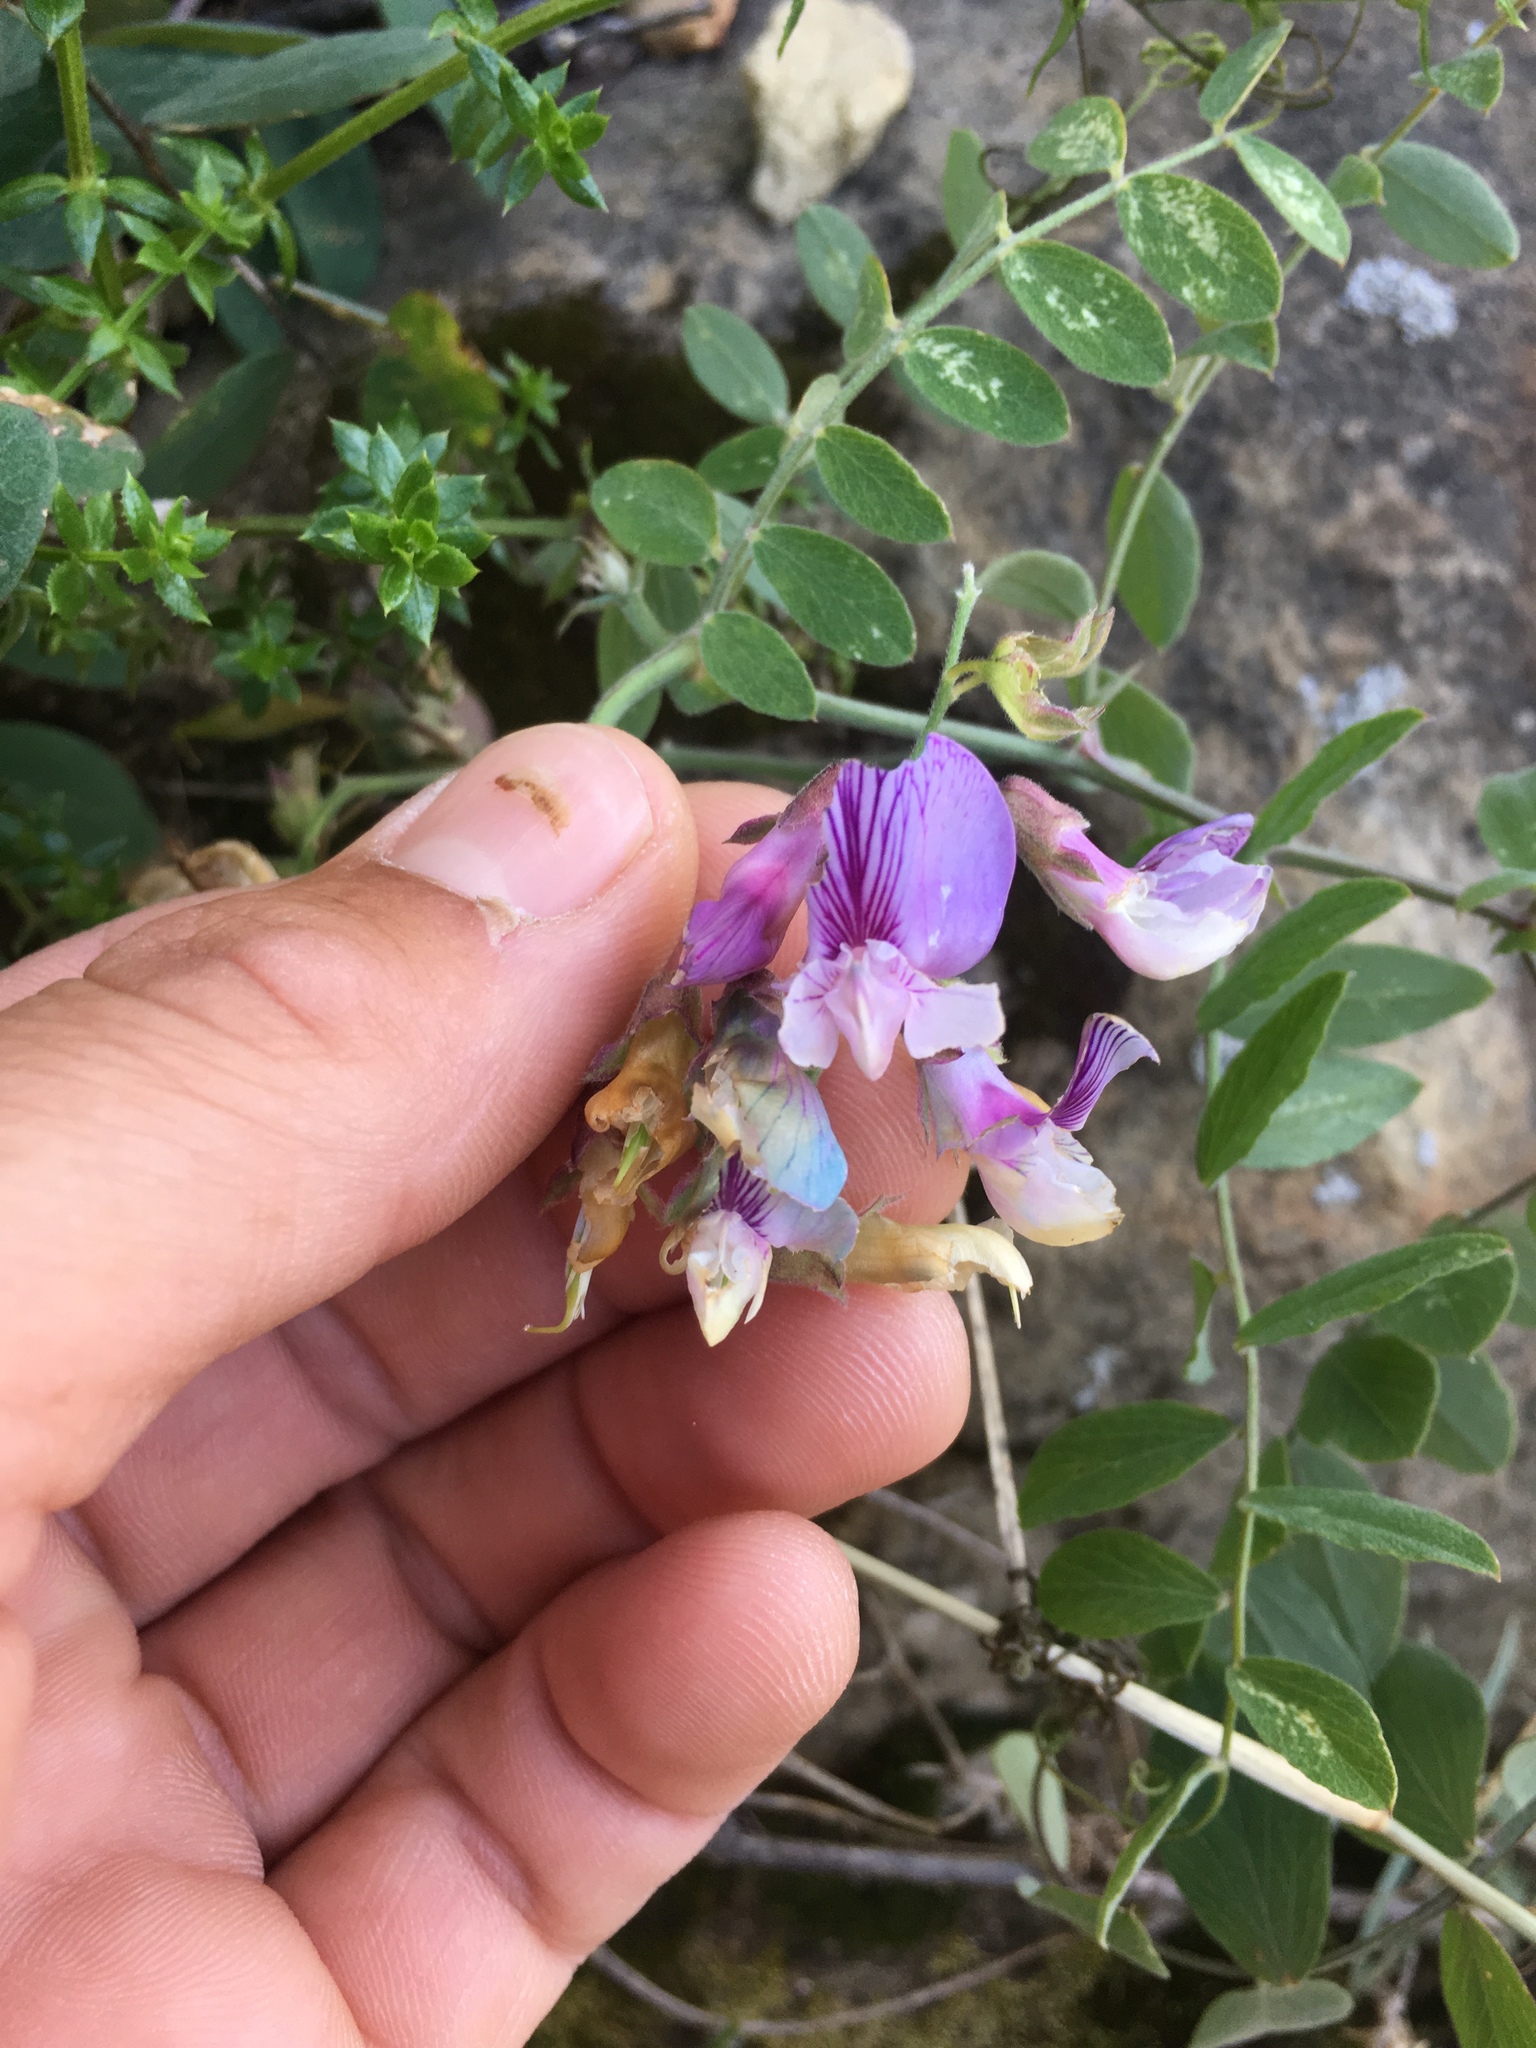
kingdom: Plantae
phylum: Tracheophyta
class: Magnoliopsida
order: Fabales
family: Fabaceae
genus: Lathyrus
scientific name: Lathyrus vestitus
